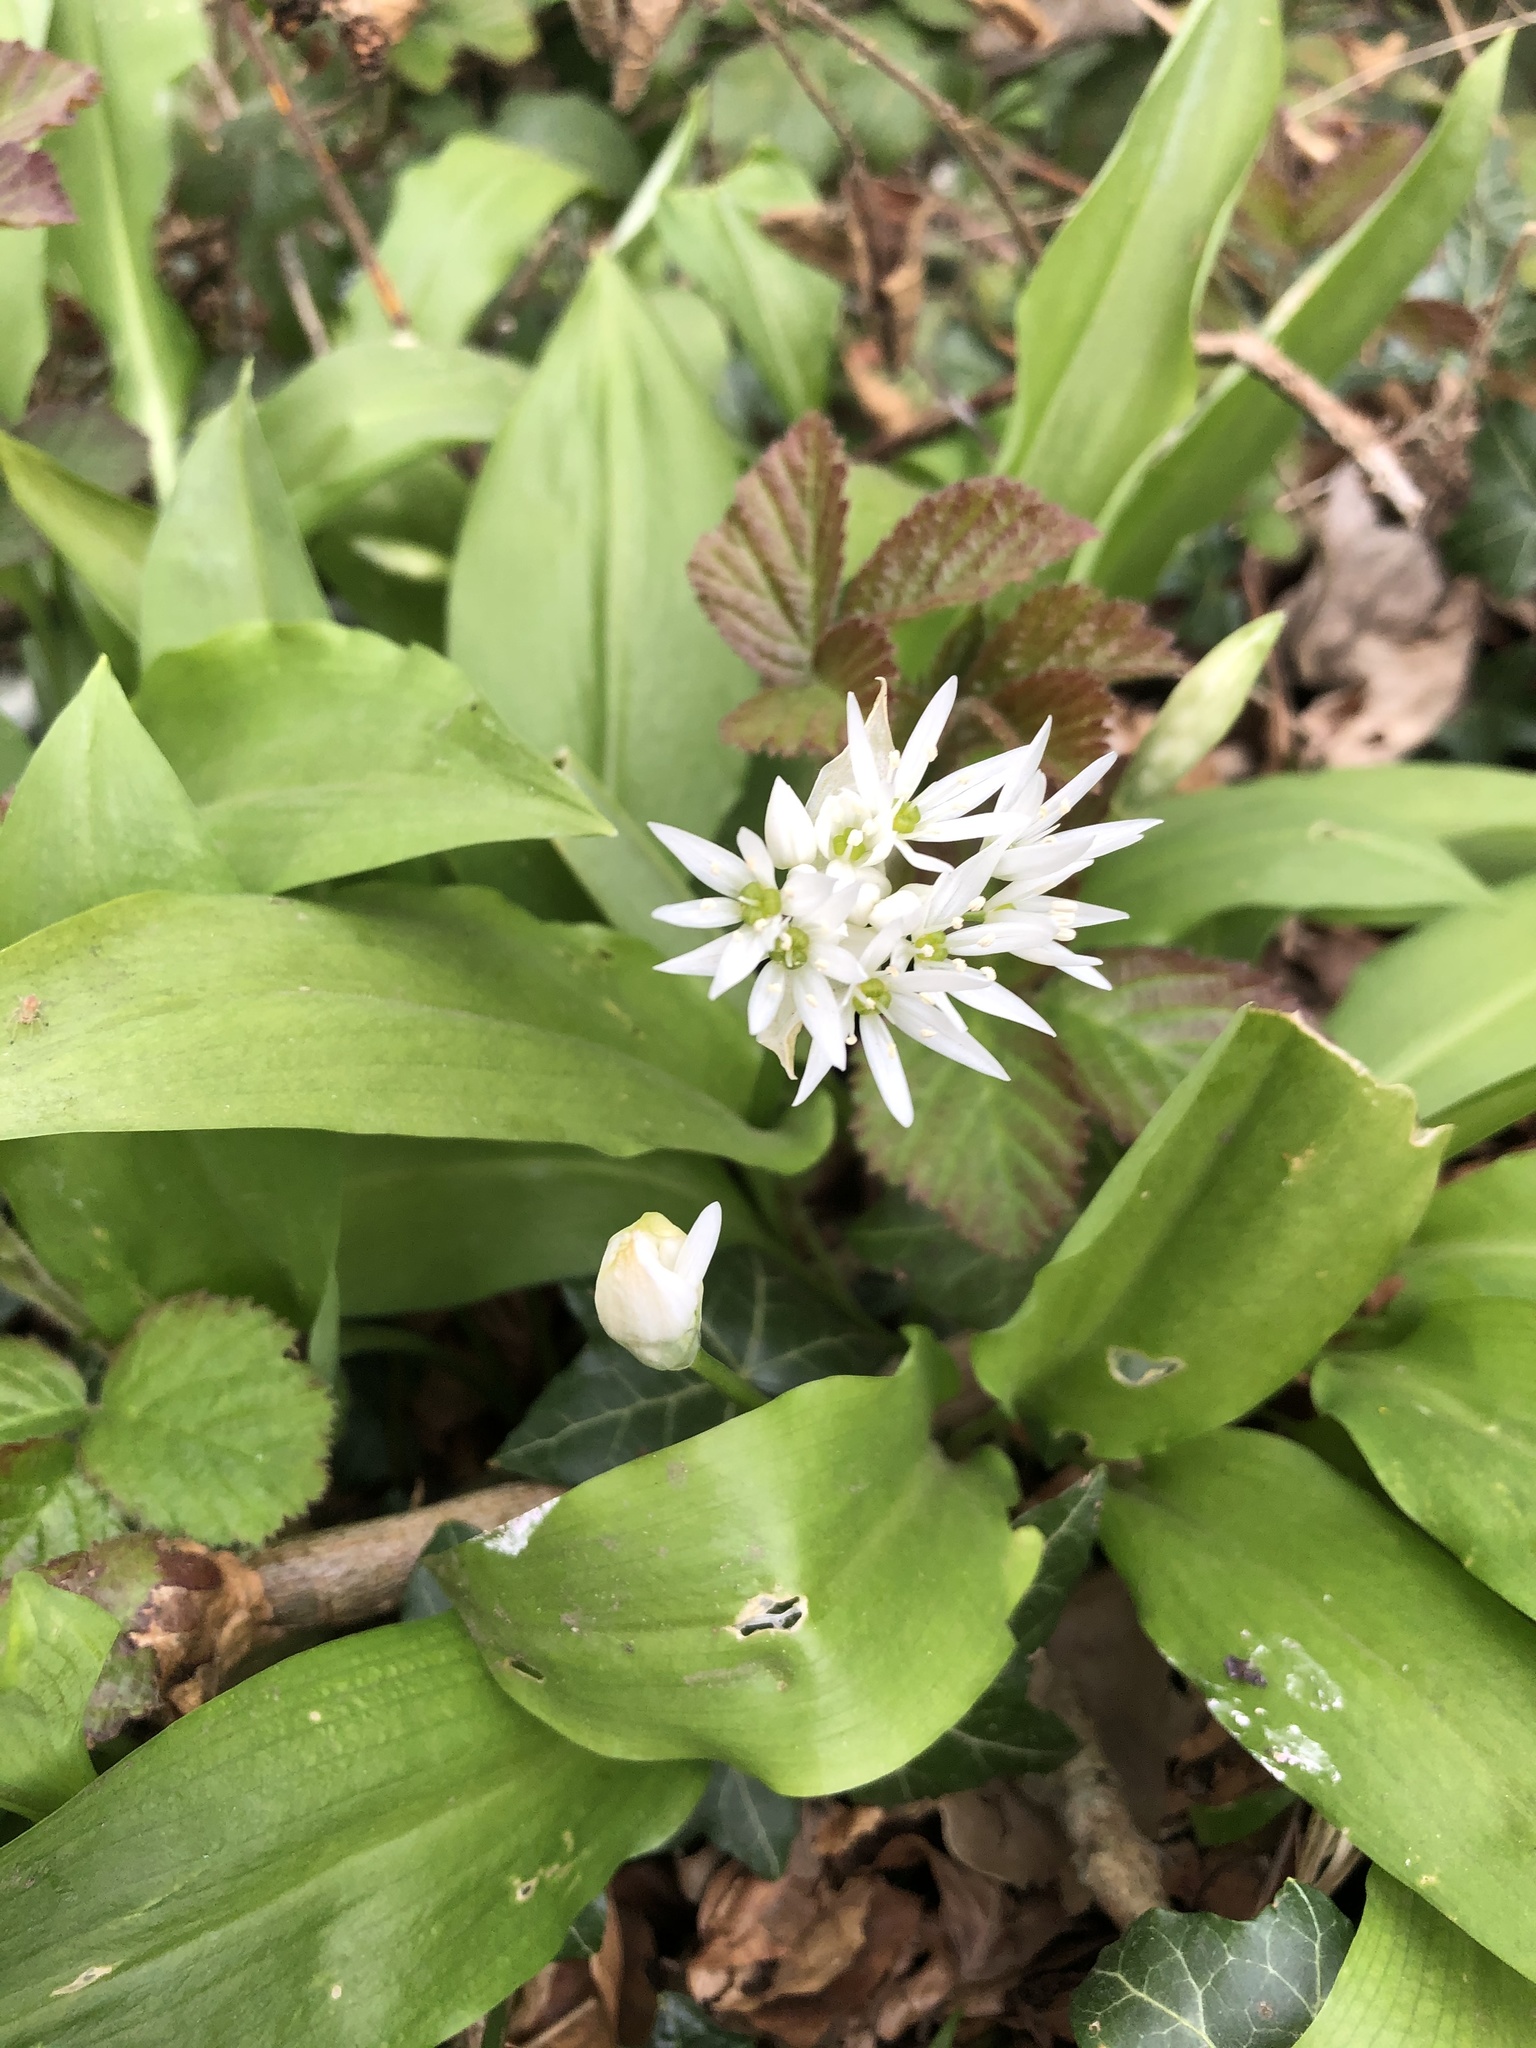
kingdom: Plantae
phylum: Tracheophyta
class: Liliopsida
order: Asparagales
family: Amaryllidaceae
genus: Allium
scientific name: Allium ursinum
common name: Ramsons
